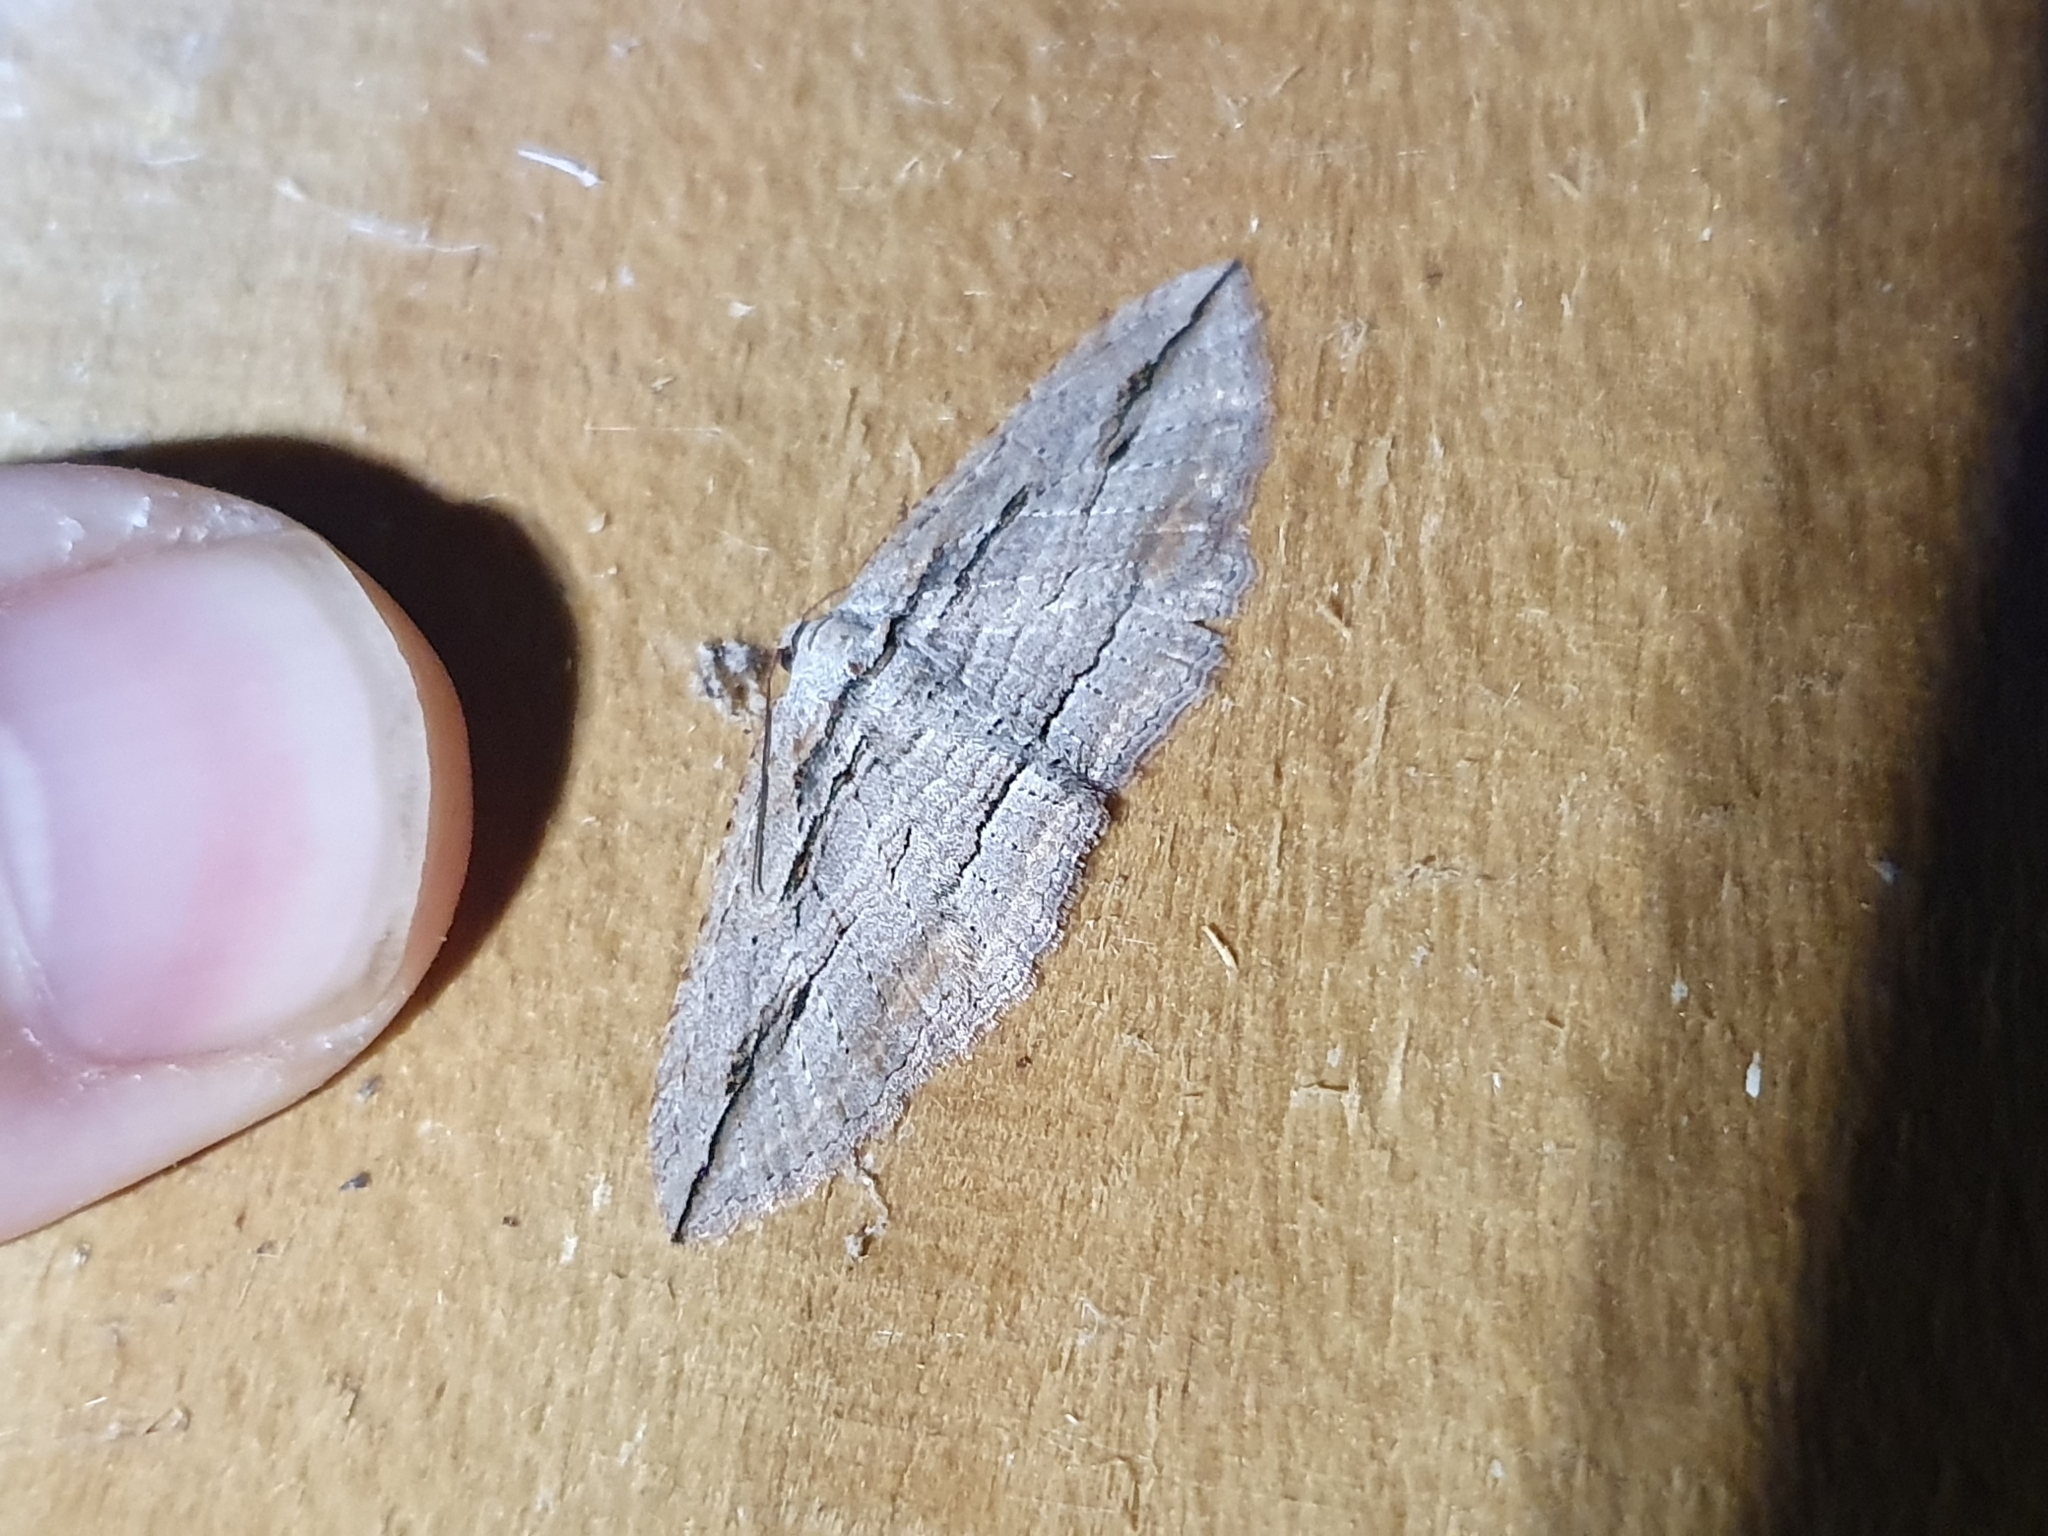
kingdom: Animalia
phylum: Arthropoda
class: Insecta
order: Lepidoptera
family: Geometridae
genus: Austrocidaria
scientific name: Austrocidaria gobiata
